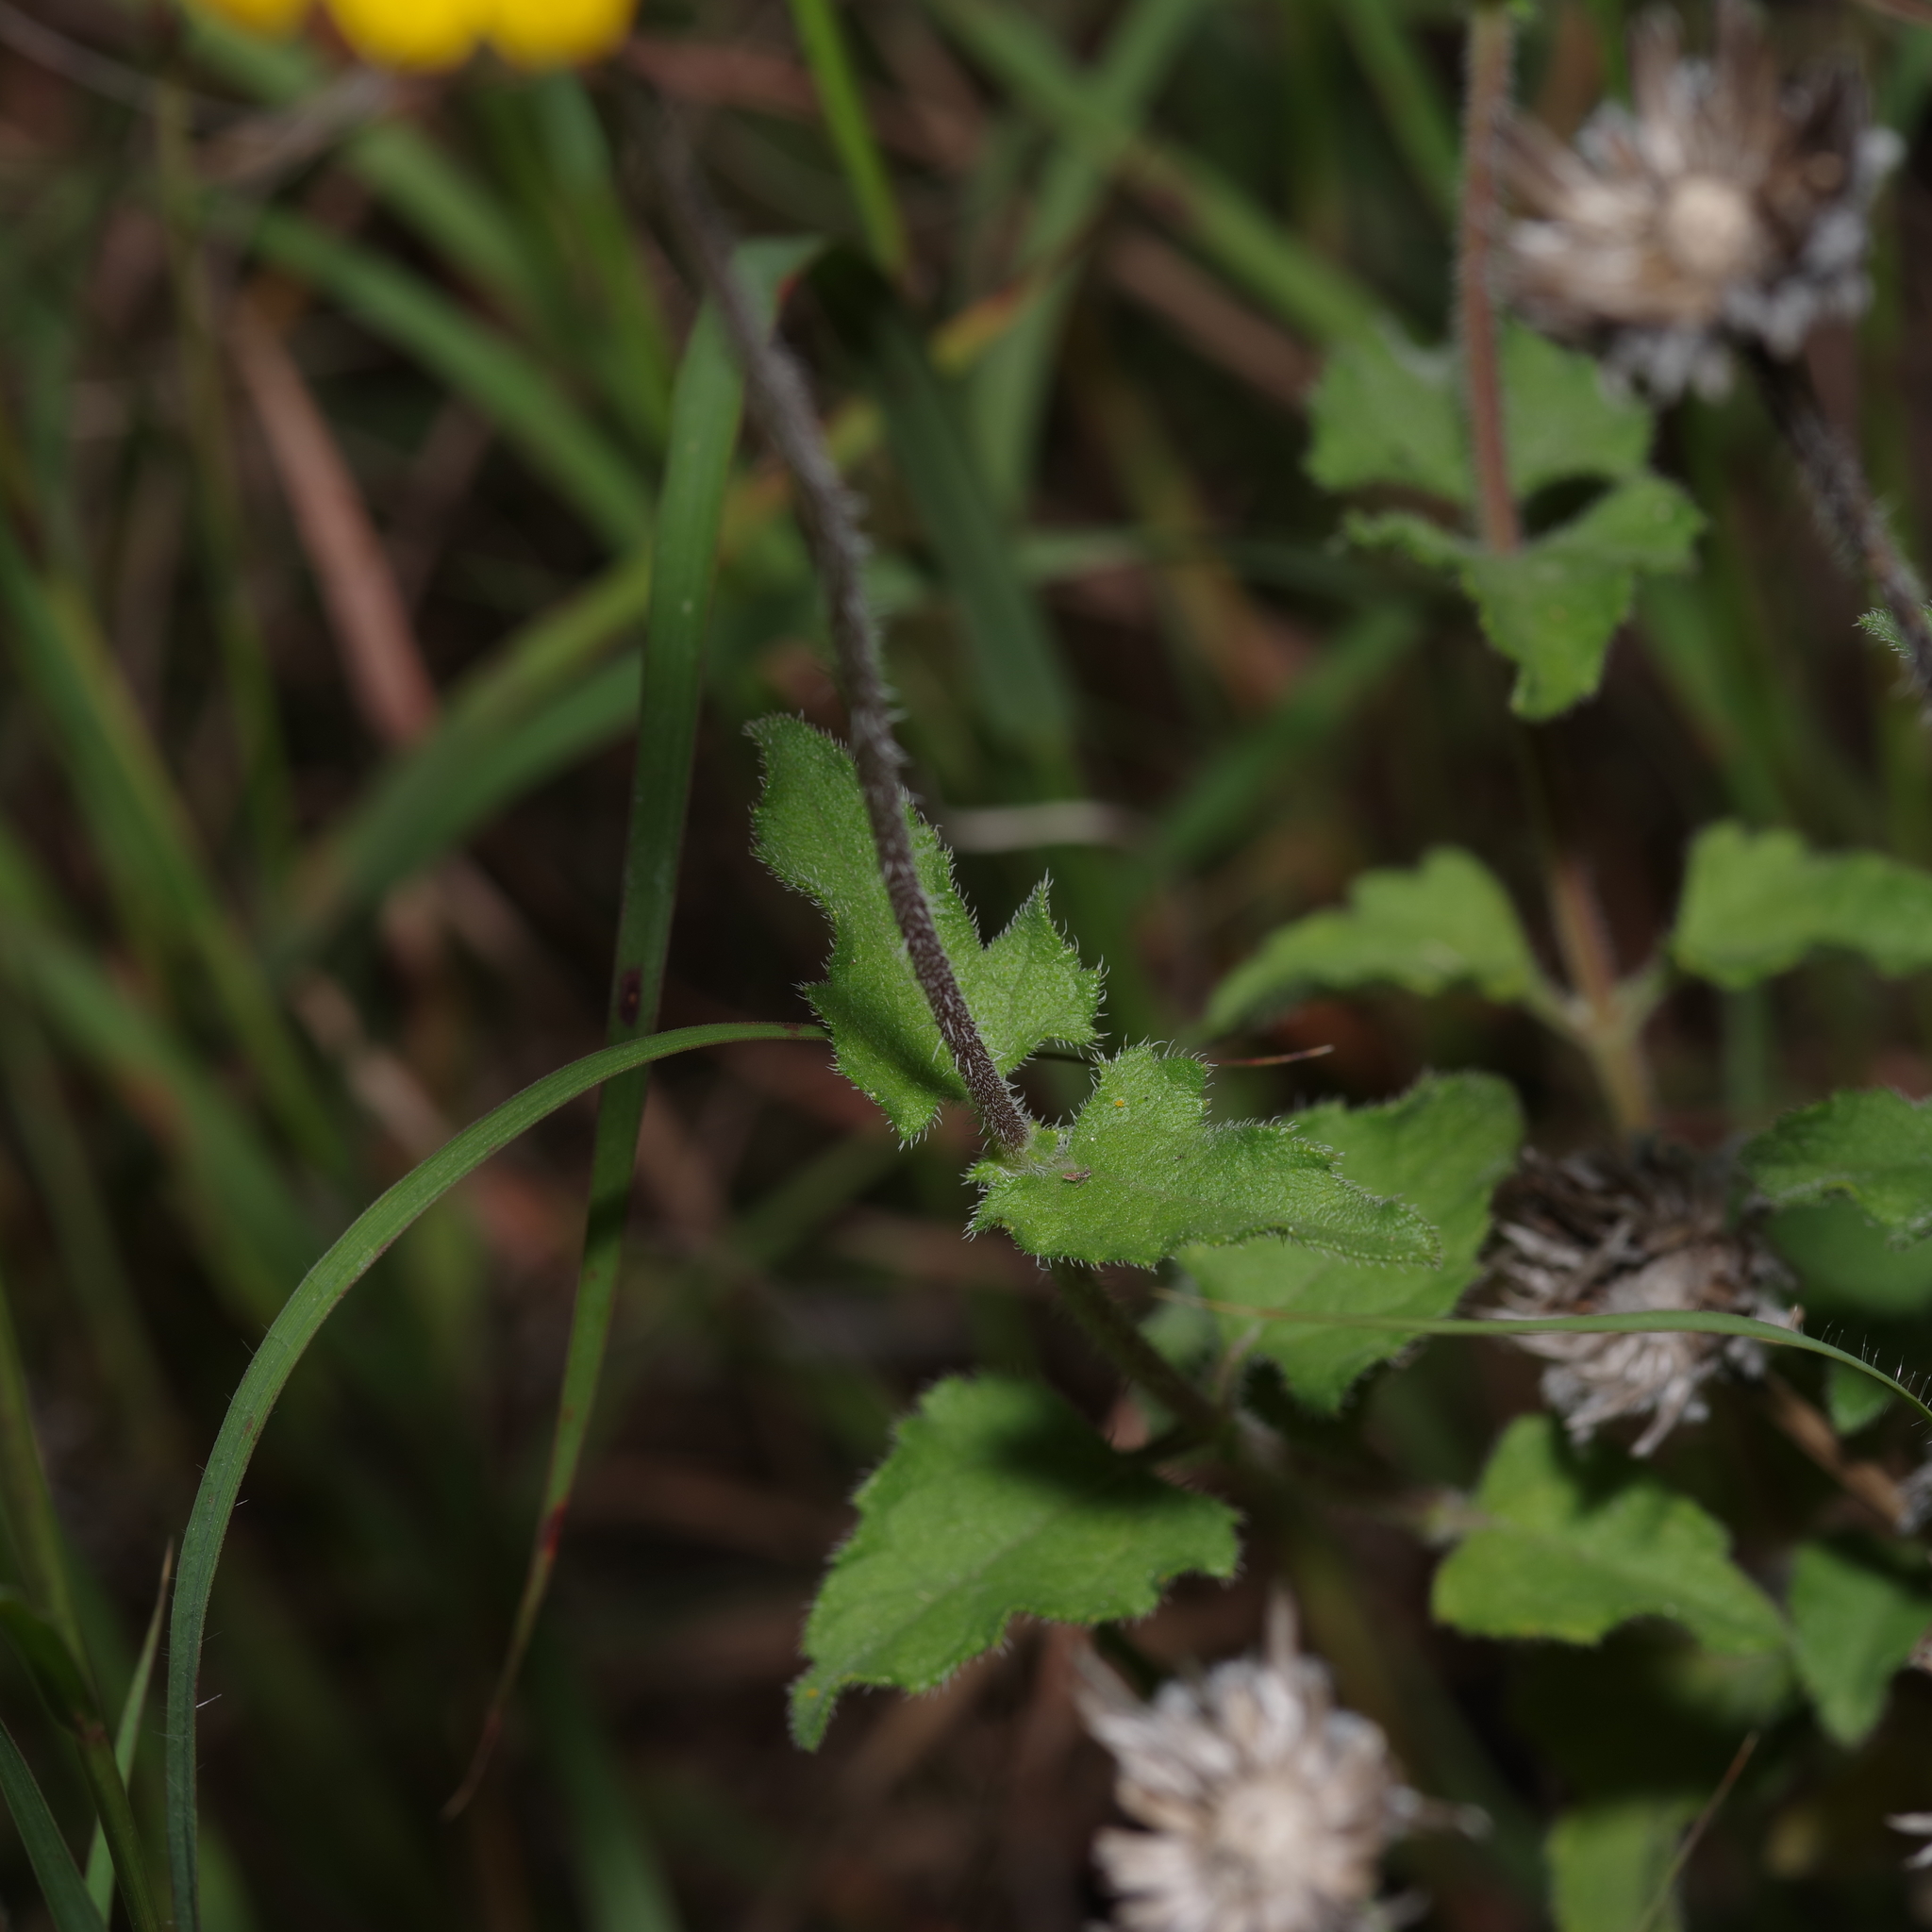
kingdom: Plantae
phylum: Tracheophyta
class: Magnoliopsida
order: Asterales
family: Asteraceae
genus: Simsia
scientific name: Simsia calva
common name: Awnless bush-sunflower
